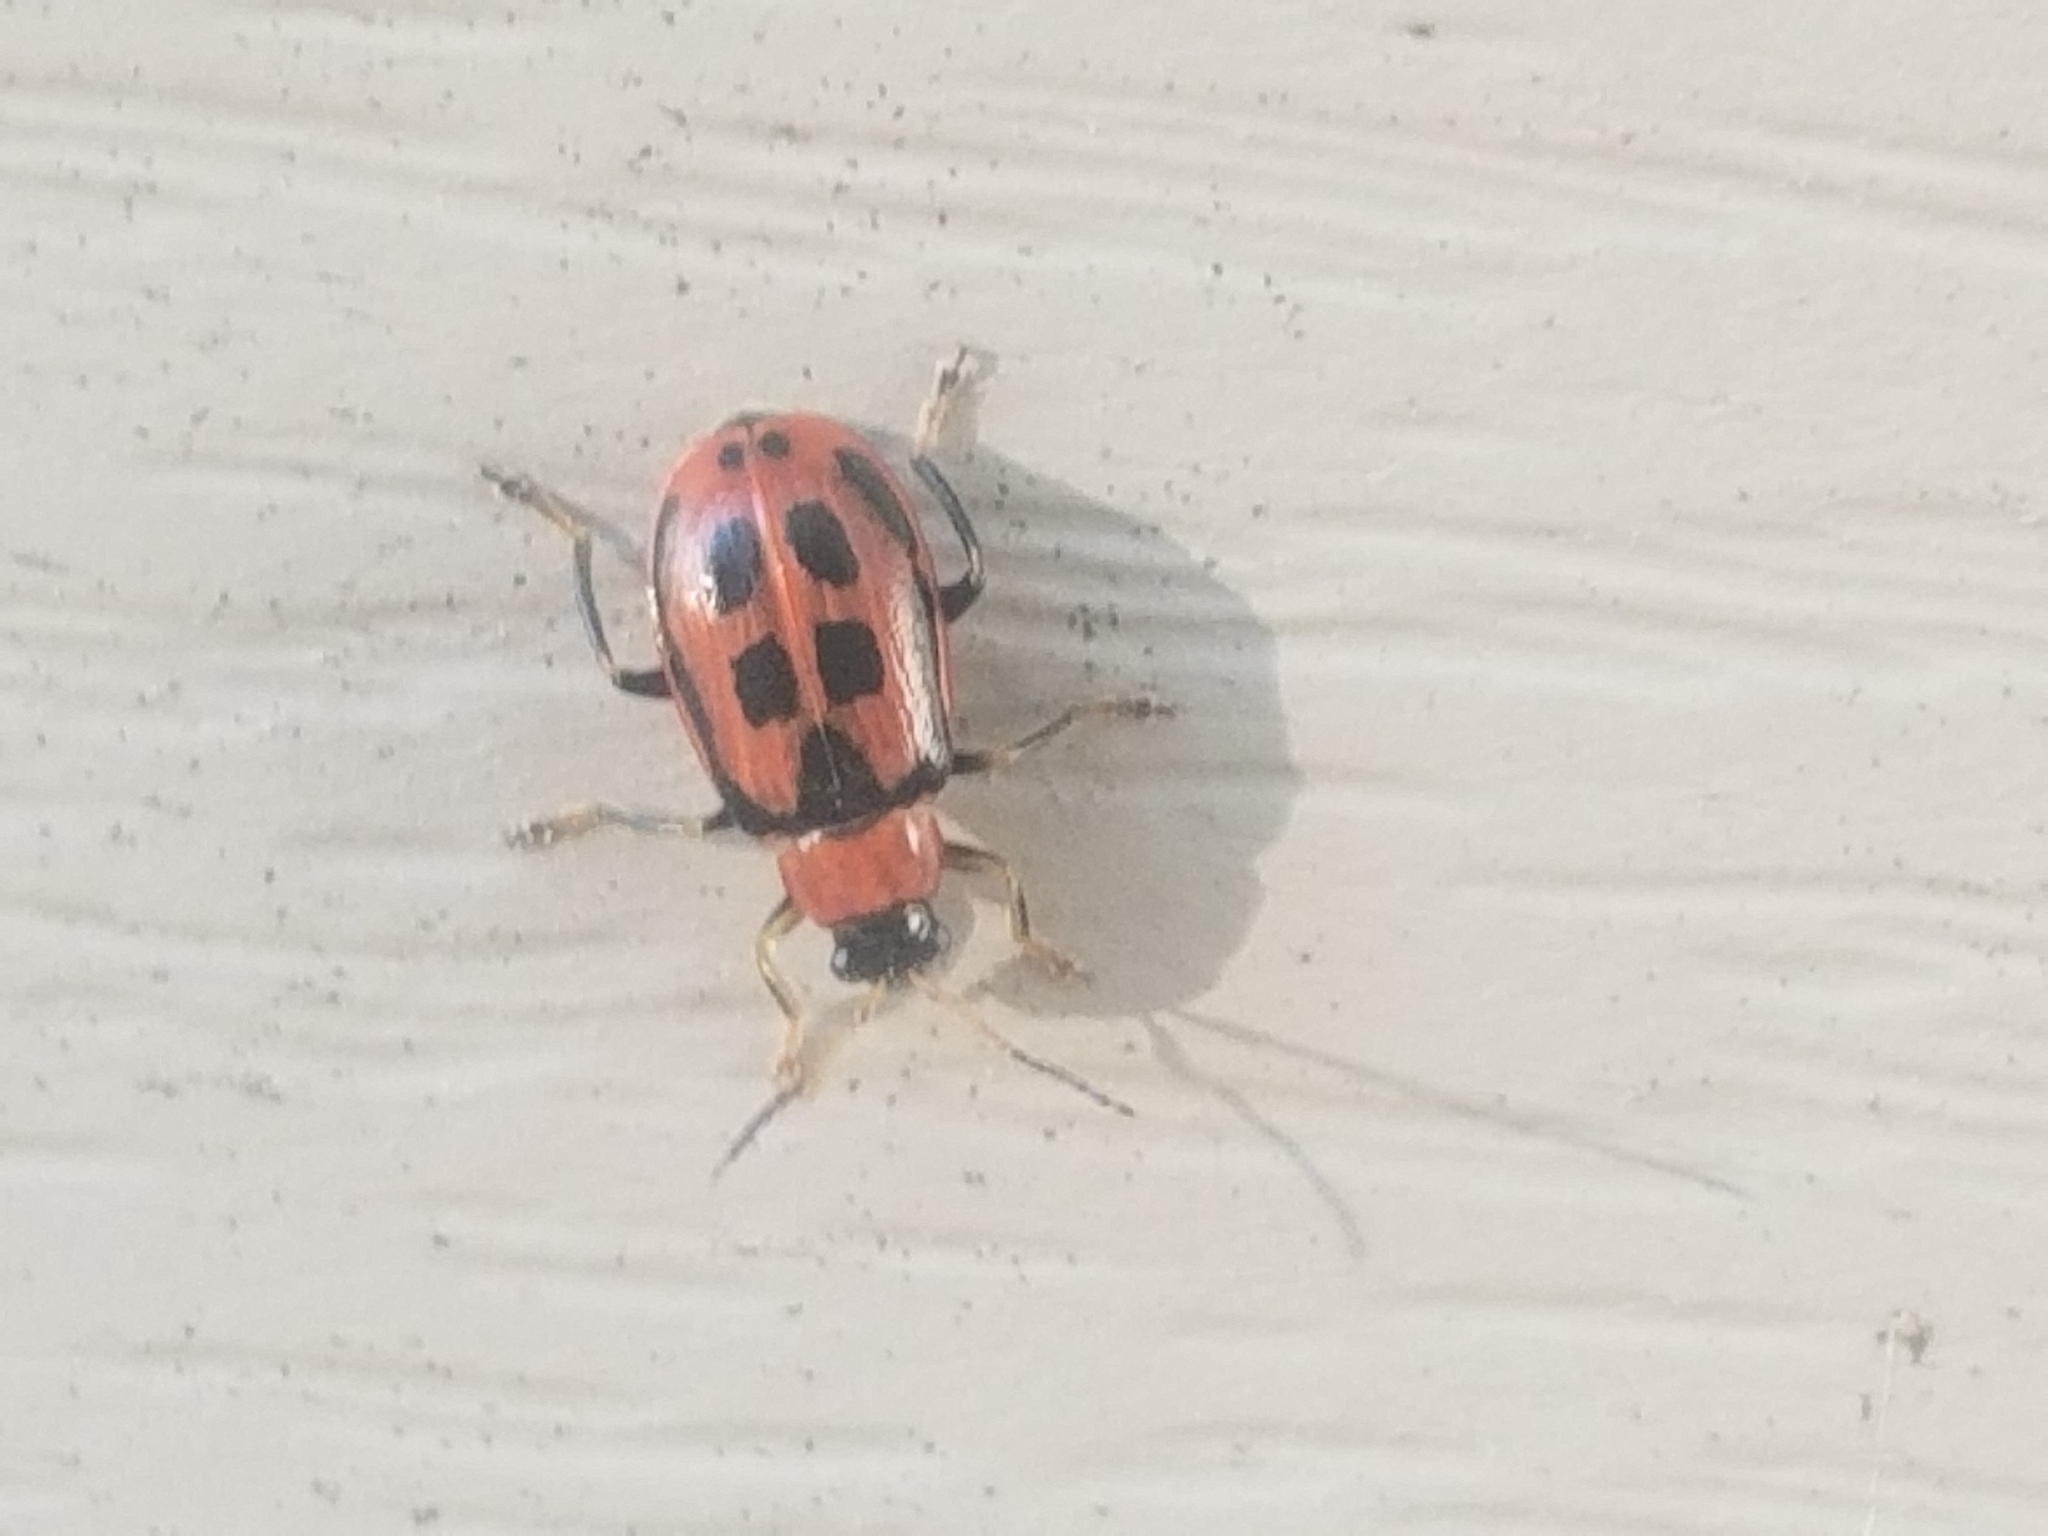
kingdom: Animalia
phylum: Arthropoda
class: Insecta
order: Coleoptera
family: Chrysomelidae
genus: Cerotoma
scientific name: Cerotoma trifurcata
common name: Bean leaf beetle
